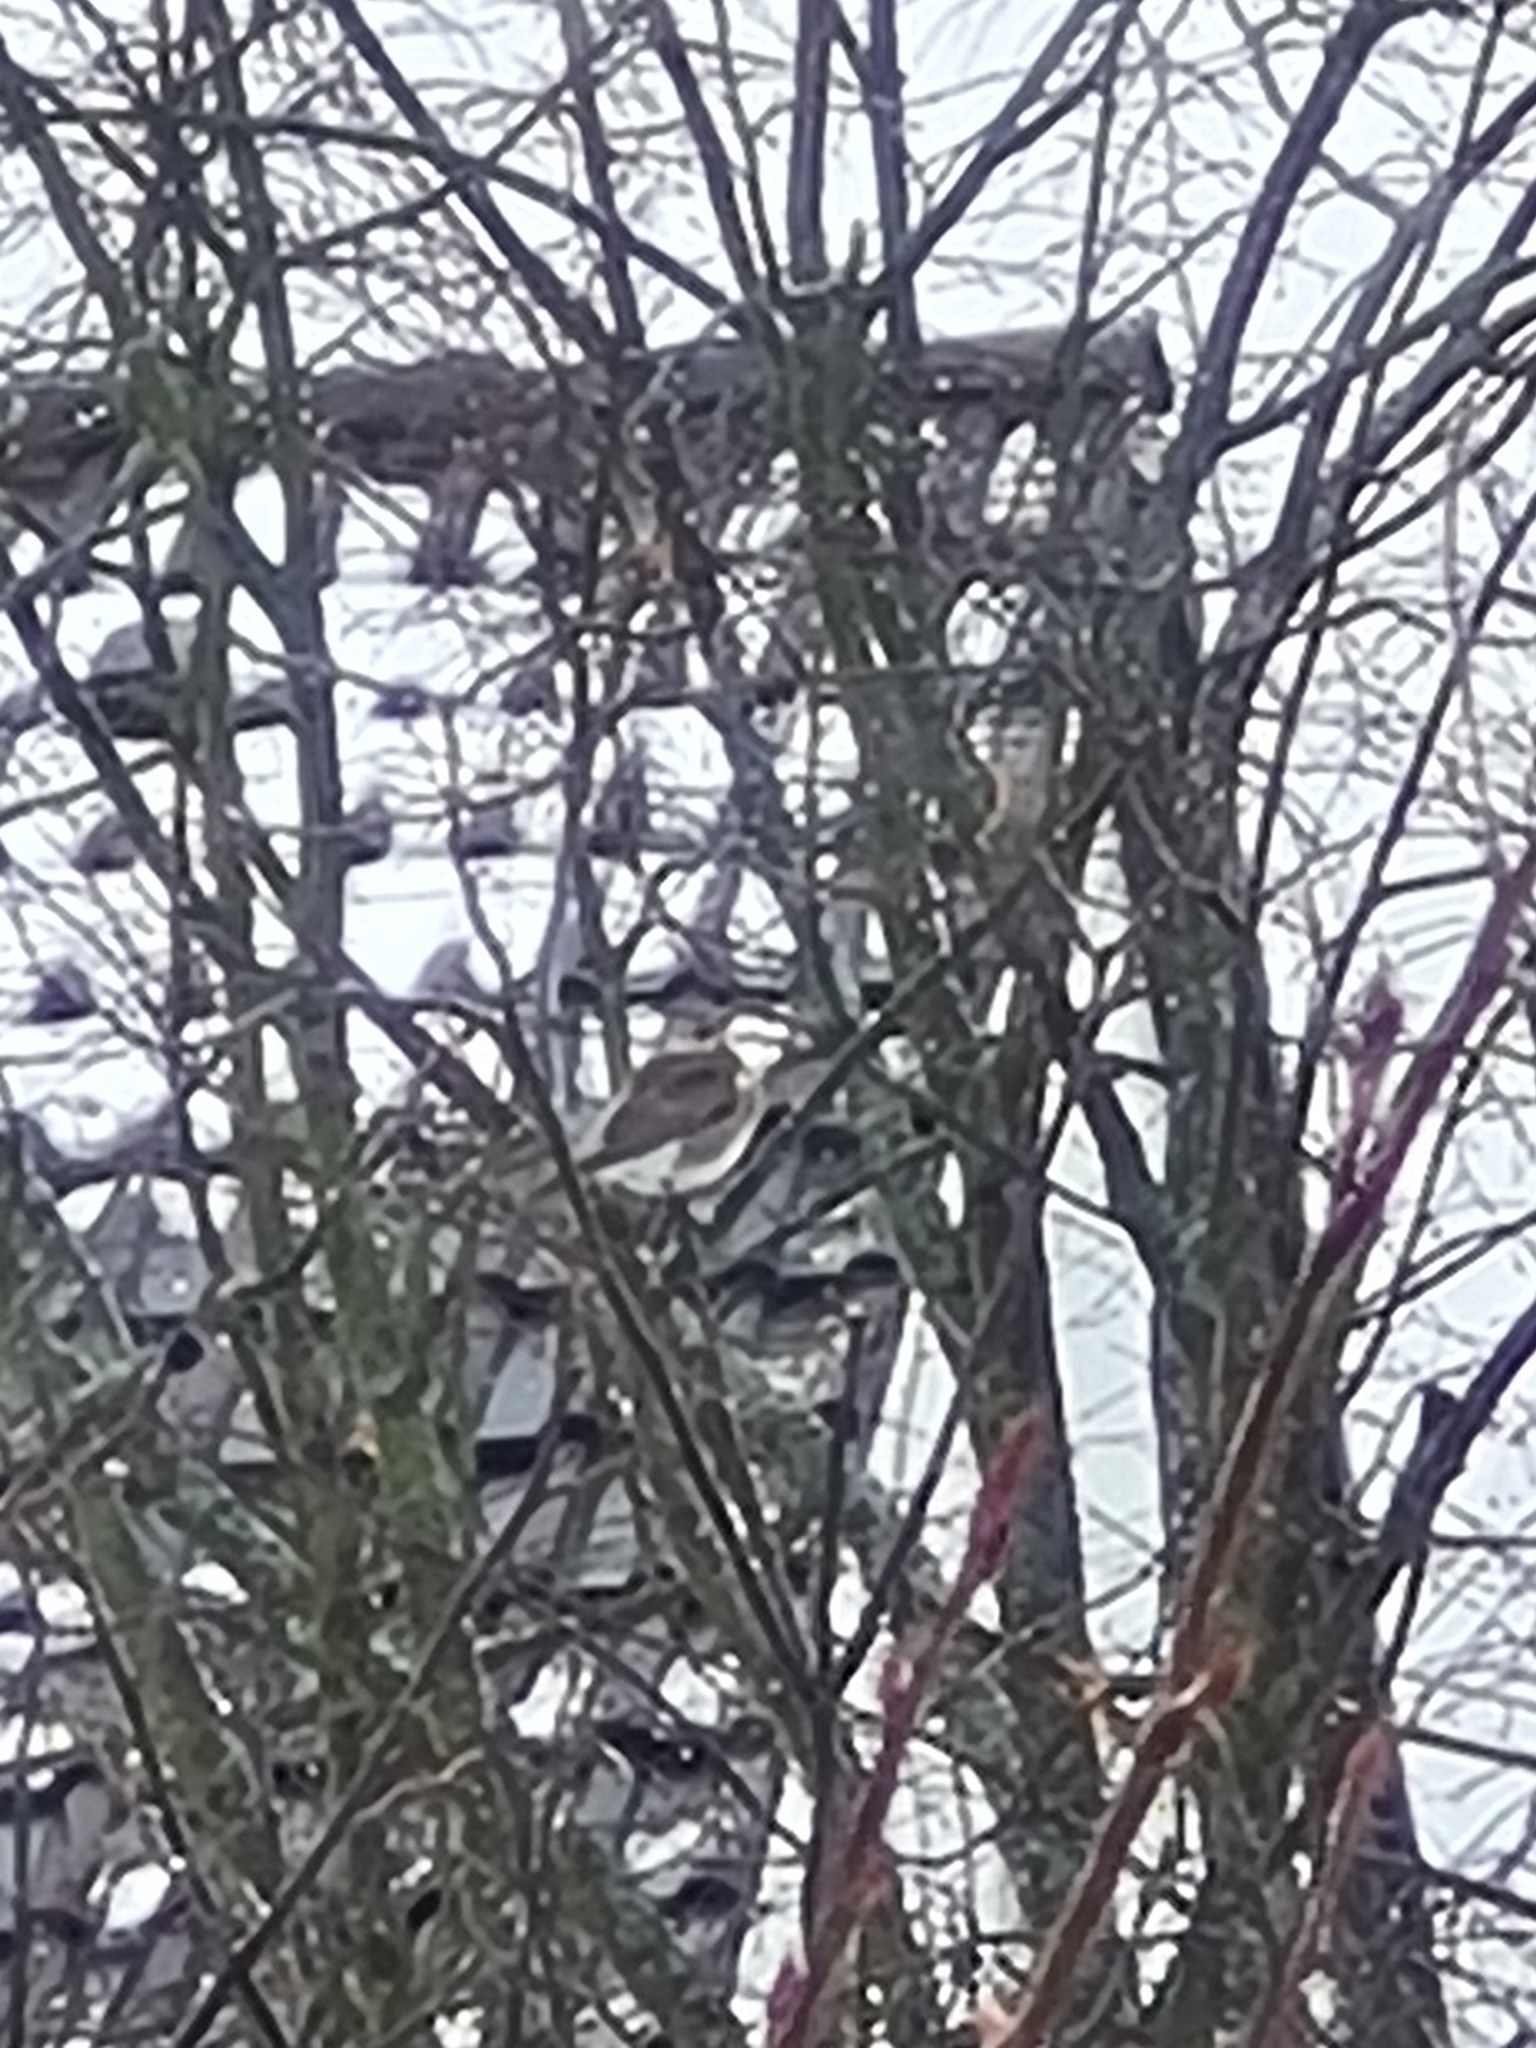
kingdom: Animalia
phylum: Chordata
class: Aves
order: Passeriformes
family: Turdidae
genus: Turdus
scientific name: Turdus pilaris
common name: Fieldfare
